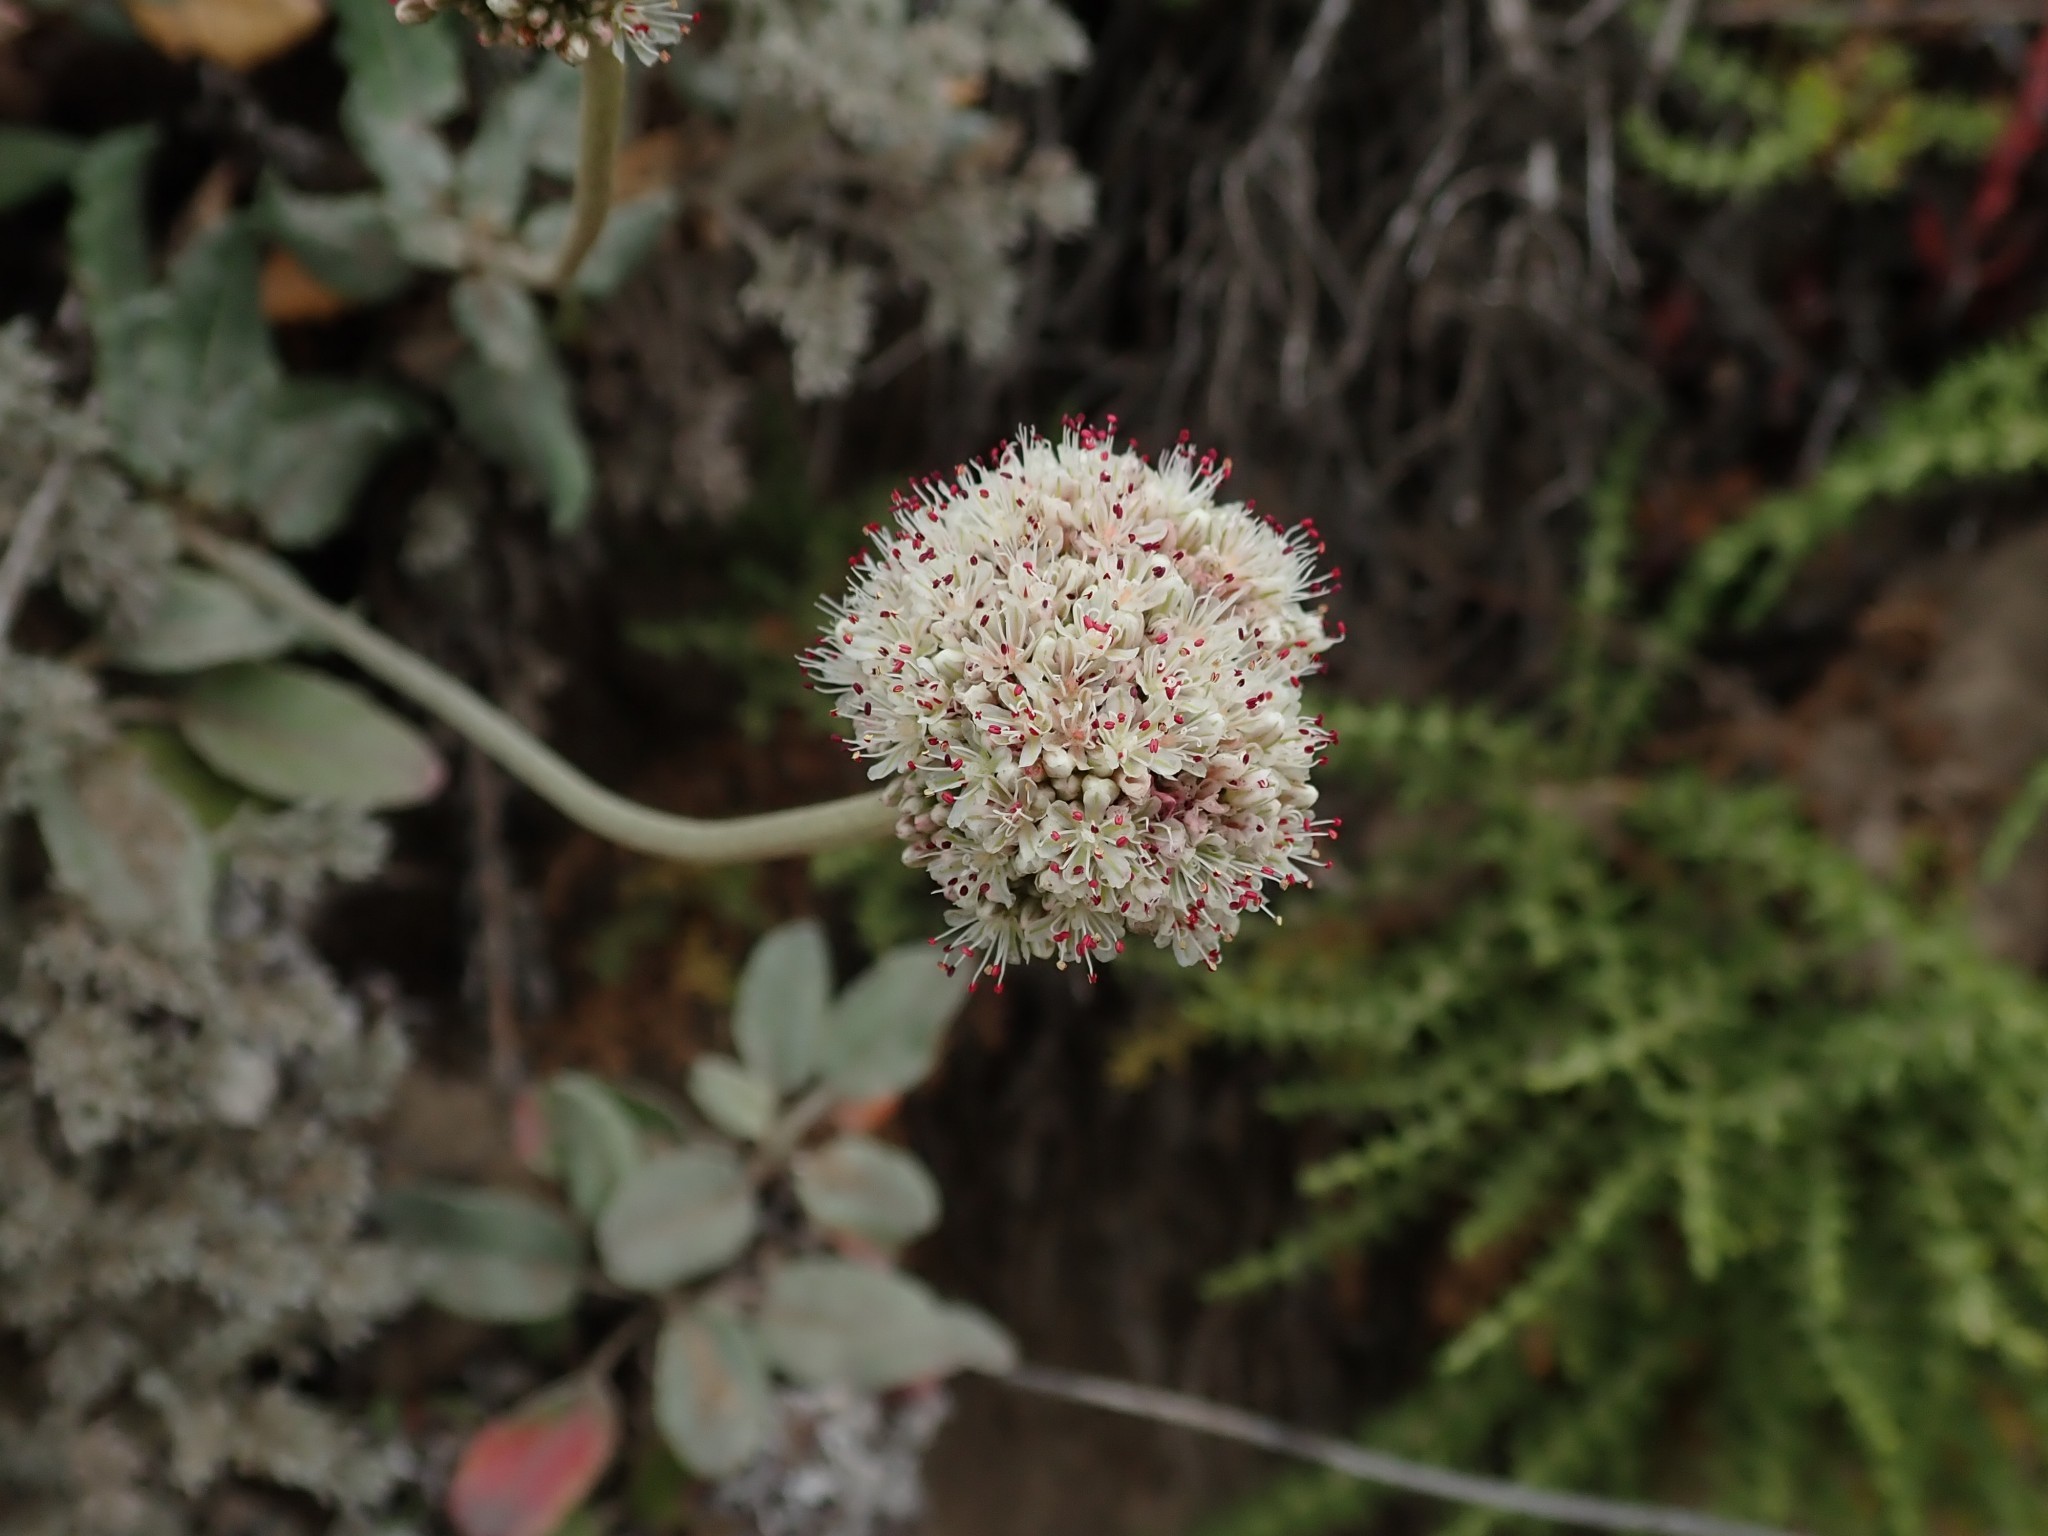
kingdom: Plantae
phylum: Tracheophyta
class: Magnoliopsida
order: Caryophyllales
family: Polygonaceae
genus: Eriogonum
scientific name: Eriogonum latifolium
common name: Seaside wild buckwheat
